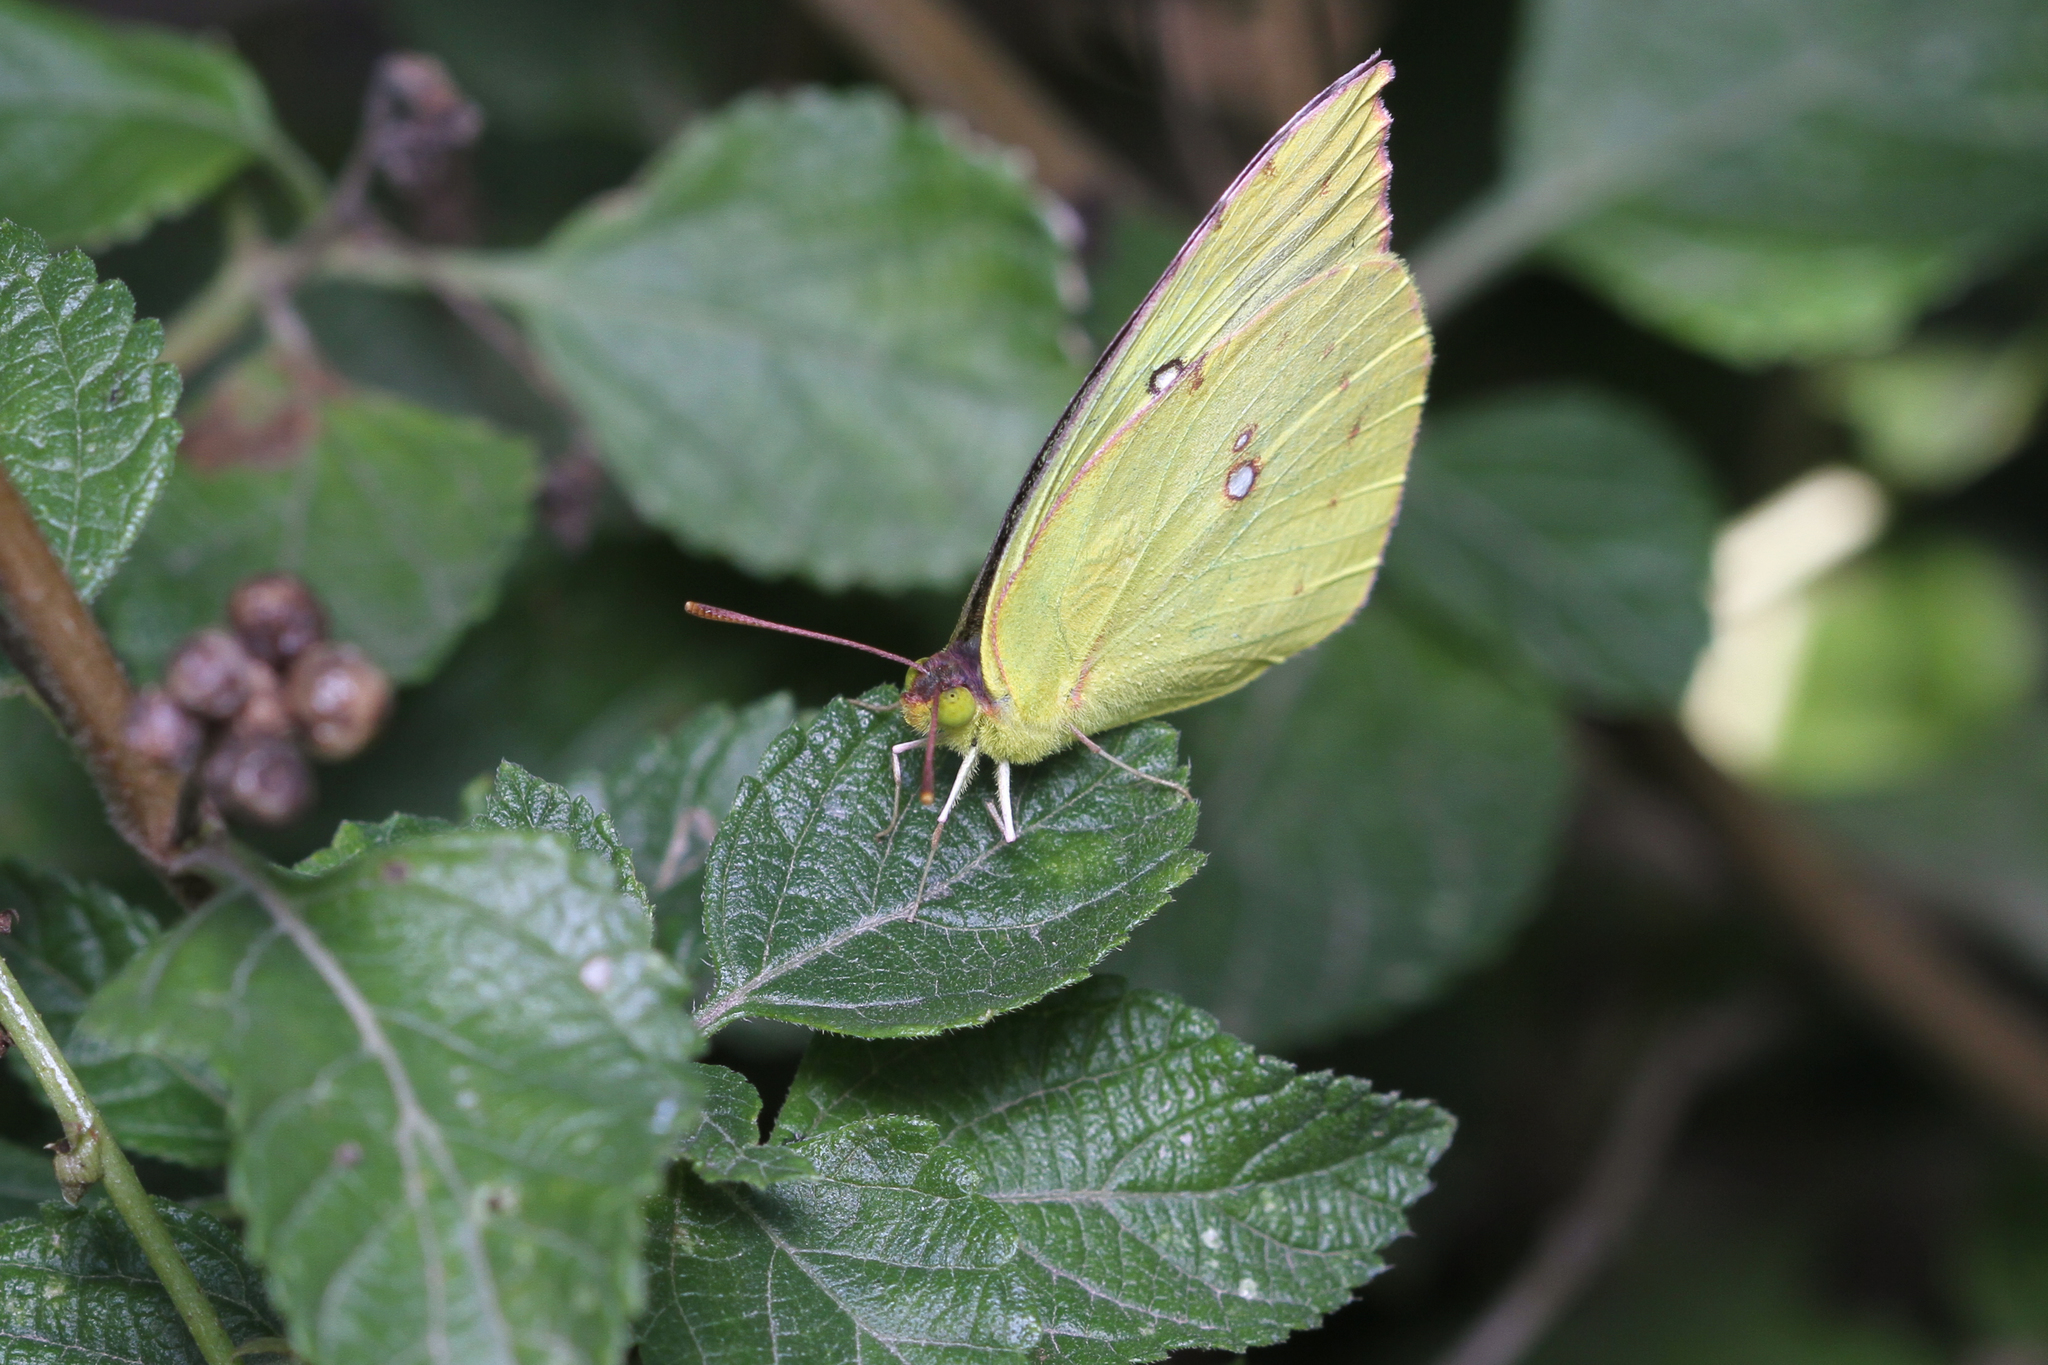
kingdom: Animalia
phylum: Arthropoda
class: Insecta
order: Lepidoptera
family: Pieridae
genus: Zerene
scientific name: Zerene cesonia
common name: Southern dogface
